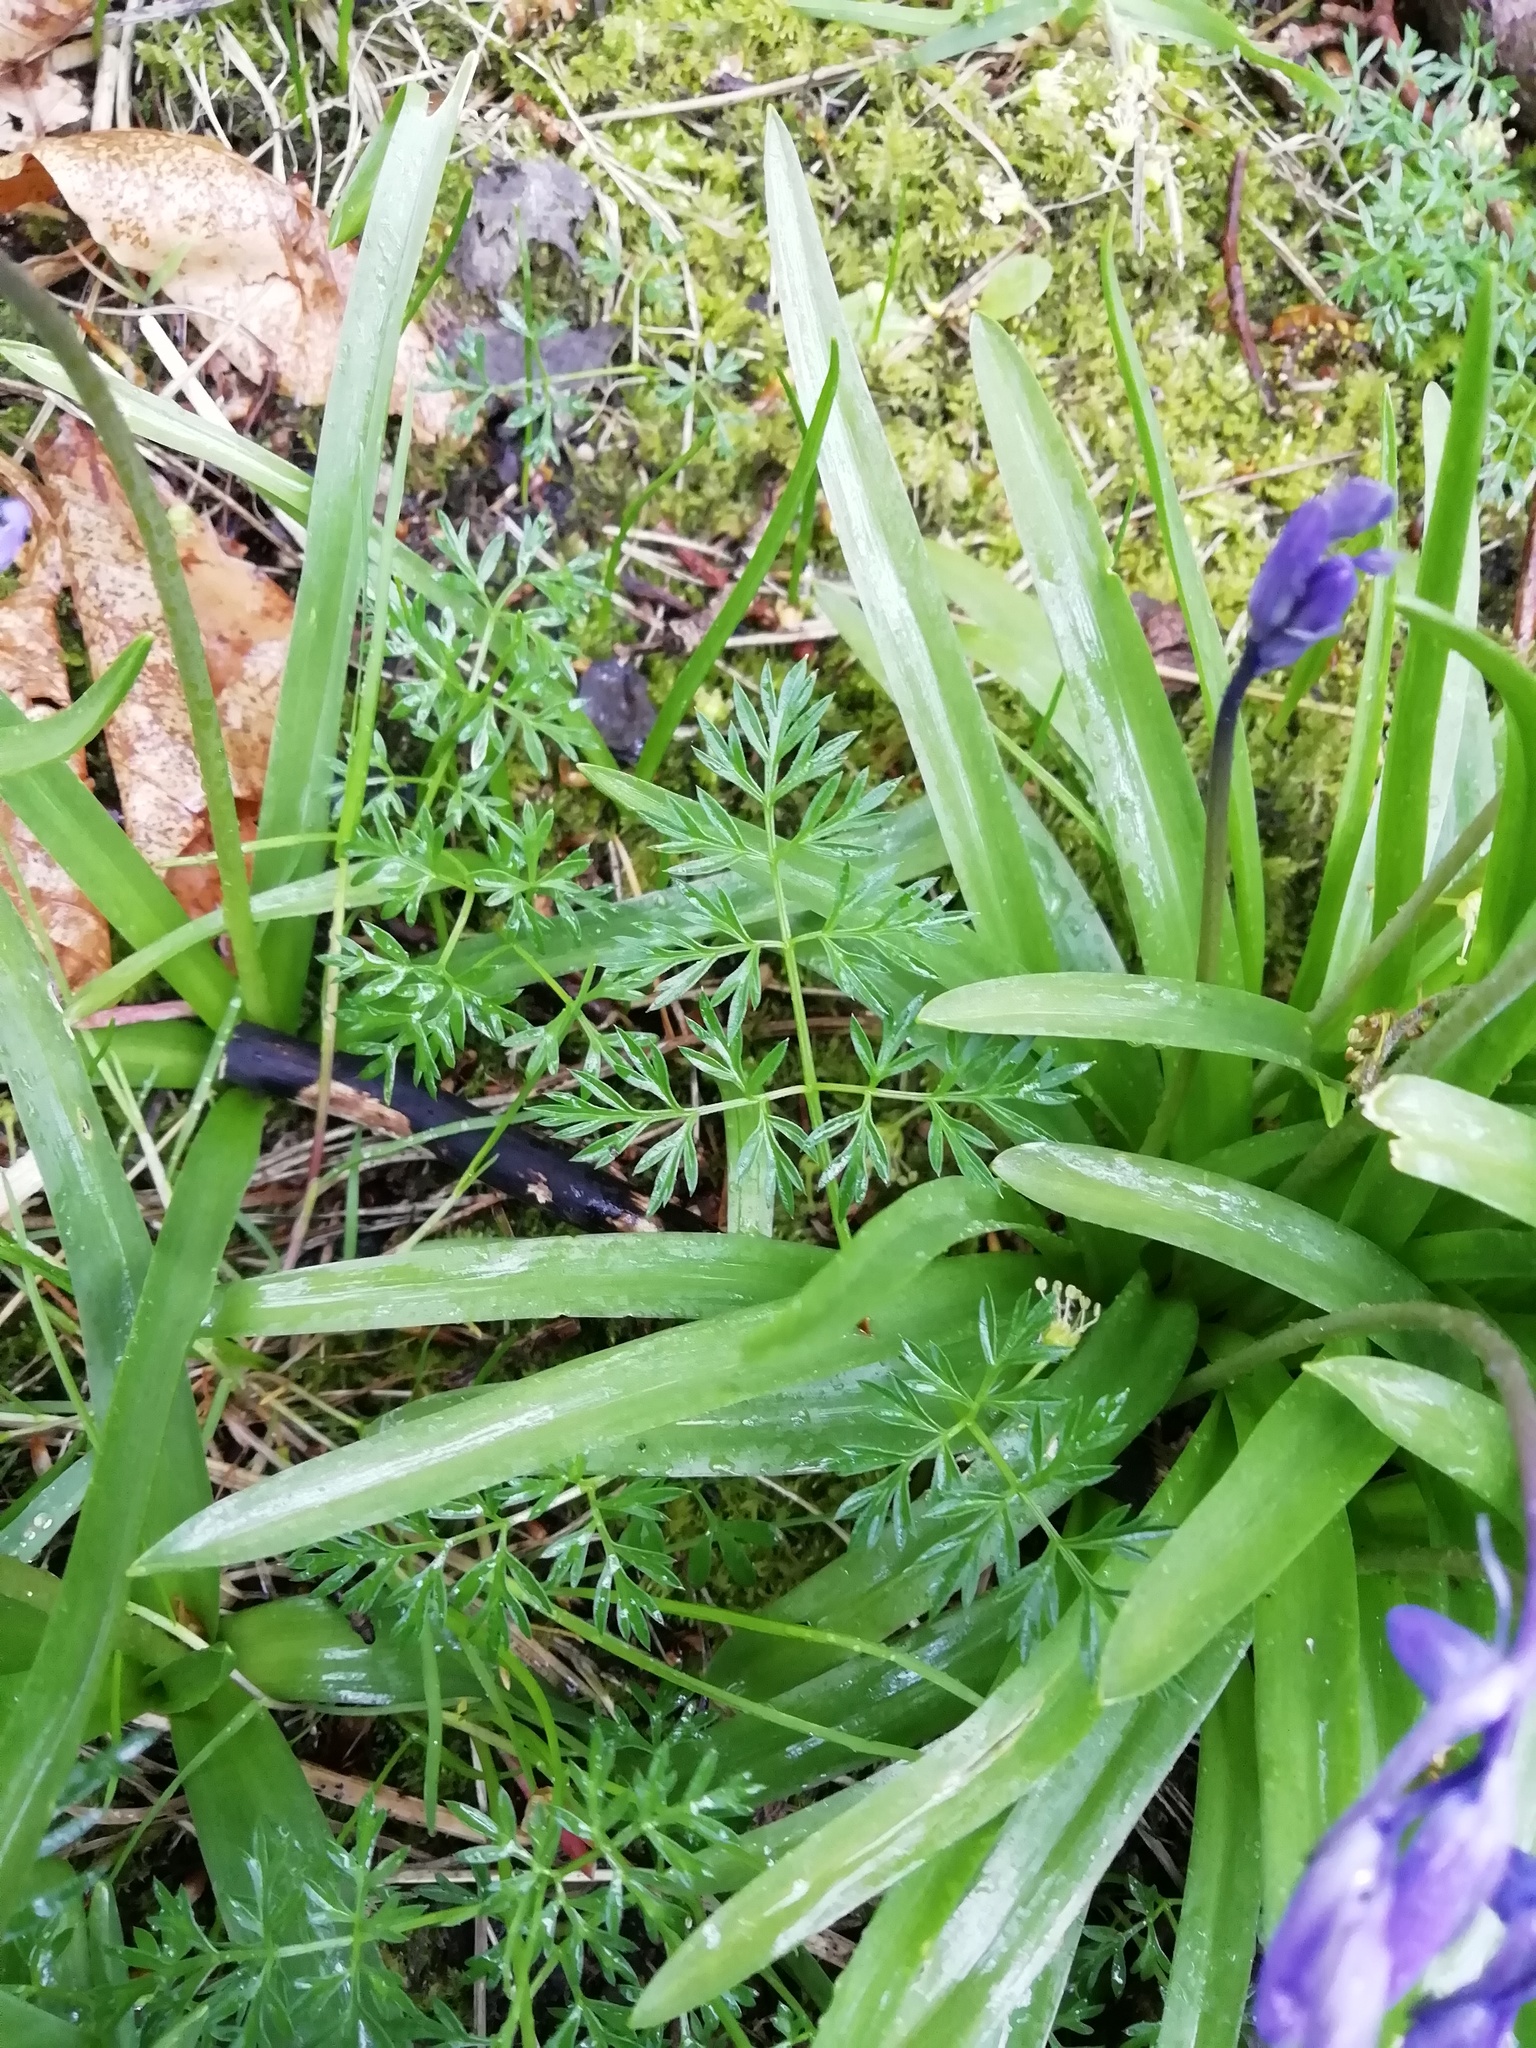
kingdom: Plantae
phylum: Tracheophyta
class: Magnoliopsida
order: Apiales
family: Apiaceae
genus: Conopodium
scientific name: Conopodium majus
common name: Pignut
